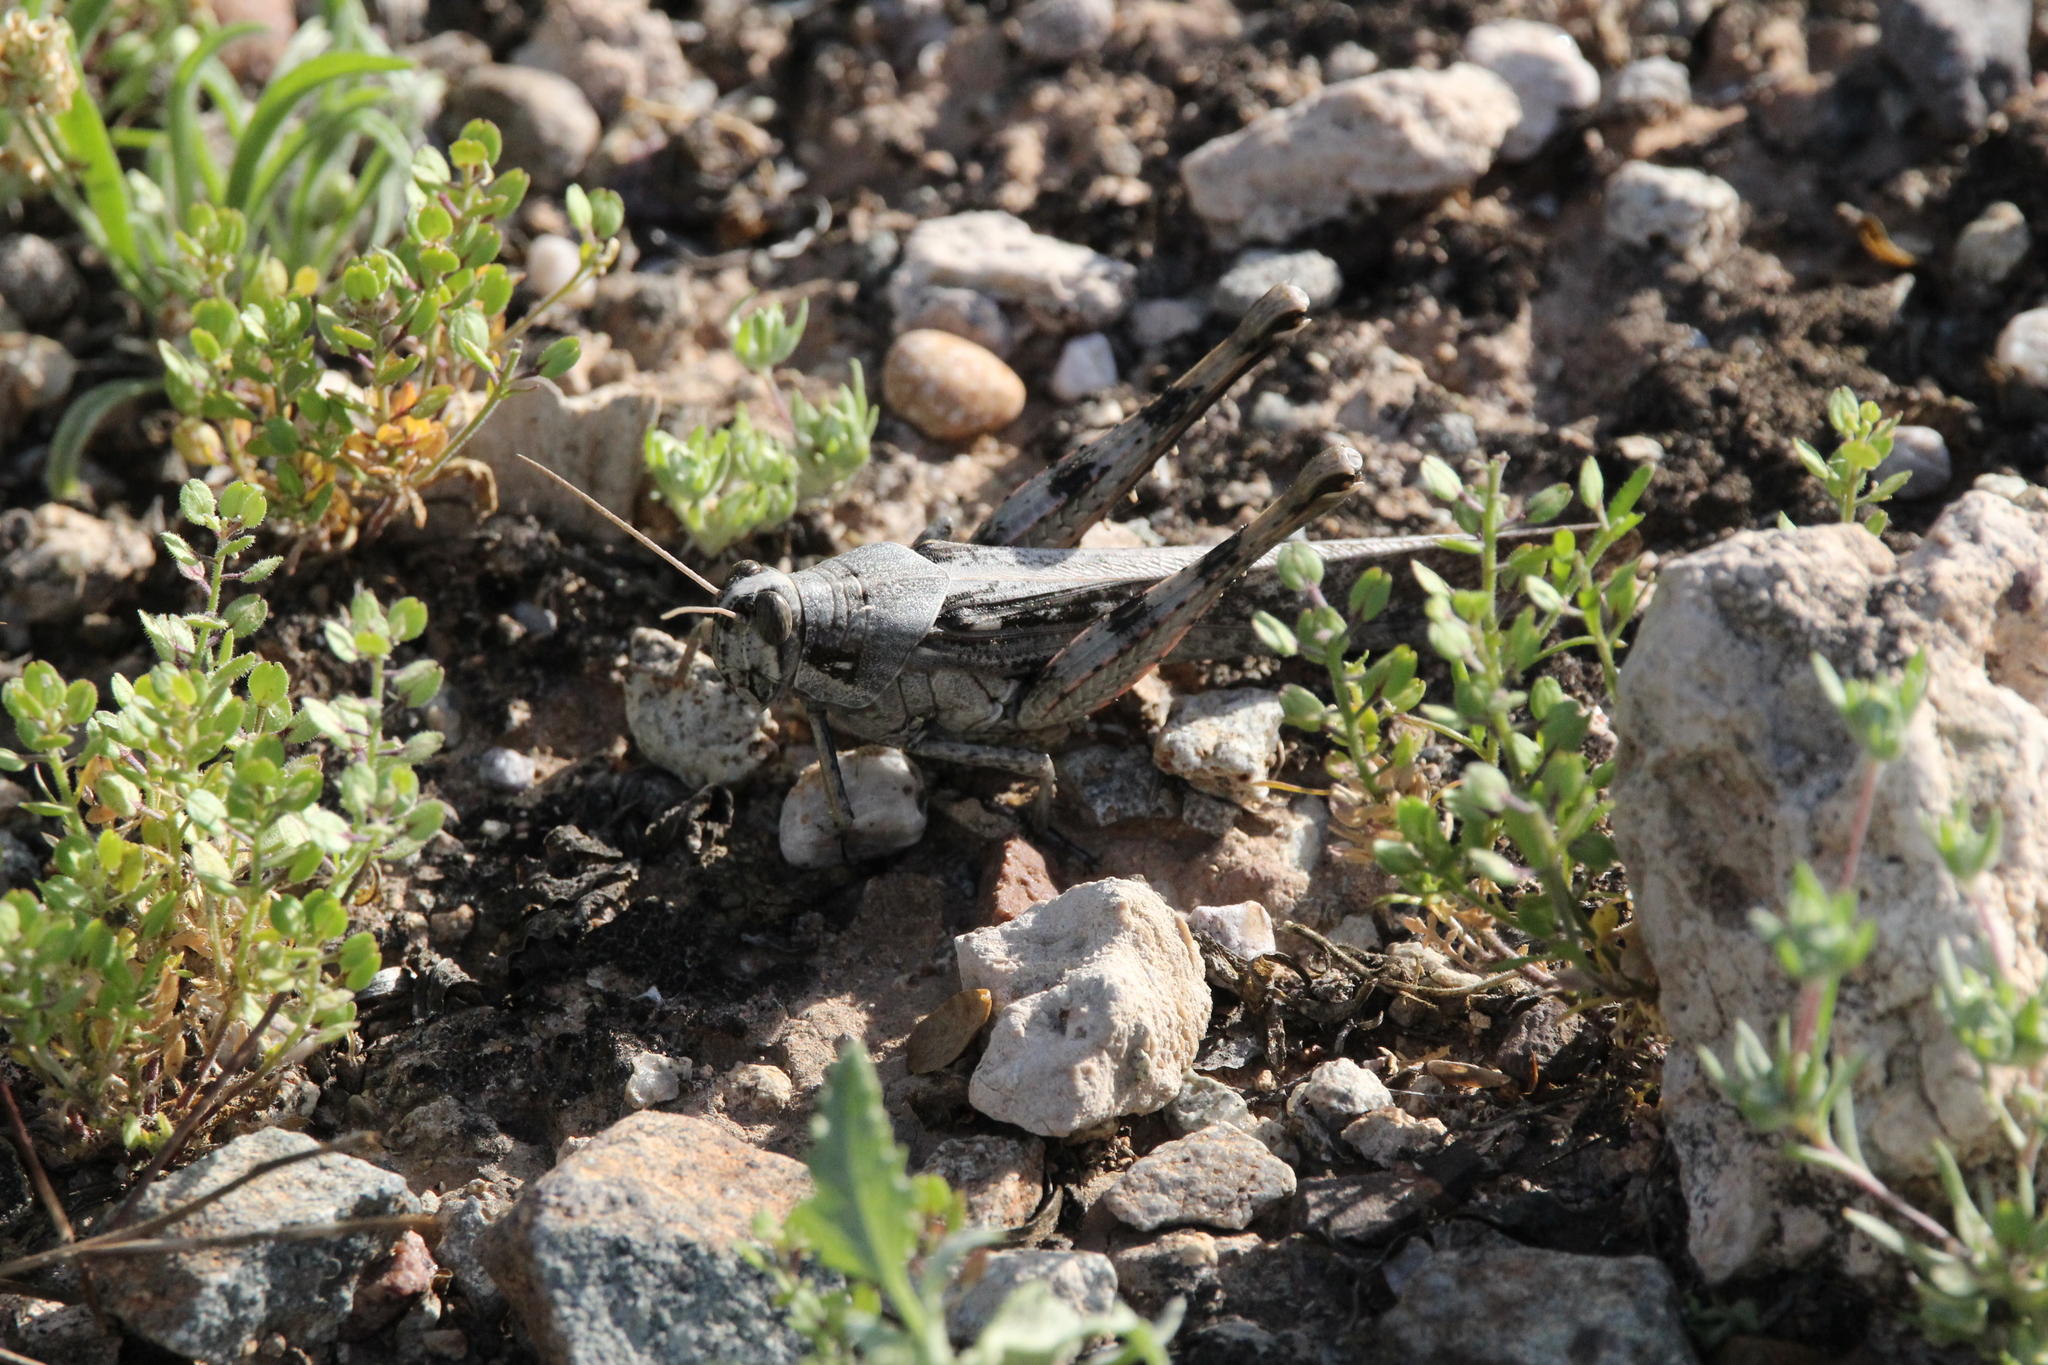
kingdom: Animalia
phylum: Arthropoda
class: Insecta
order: Orthoptera
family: Acrididae
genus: Schistocerca
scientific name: Schistocerca nitens
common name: Vagrant grasshopper
